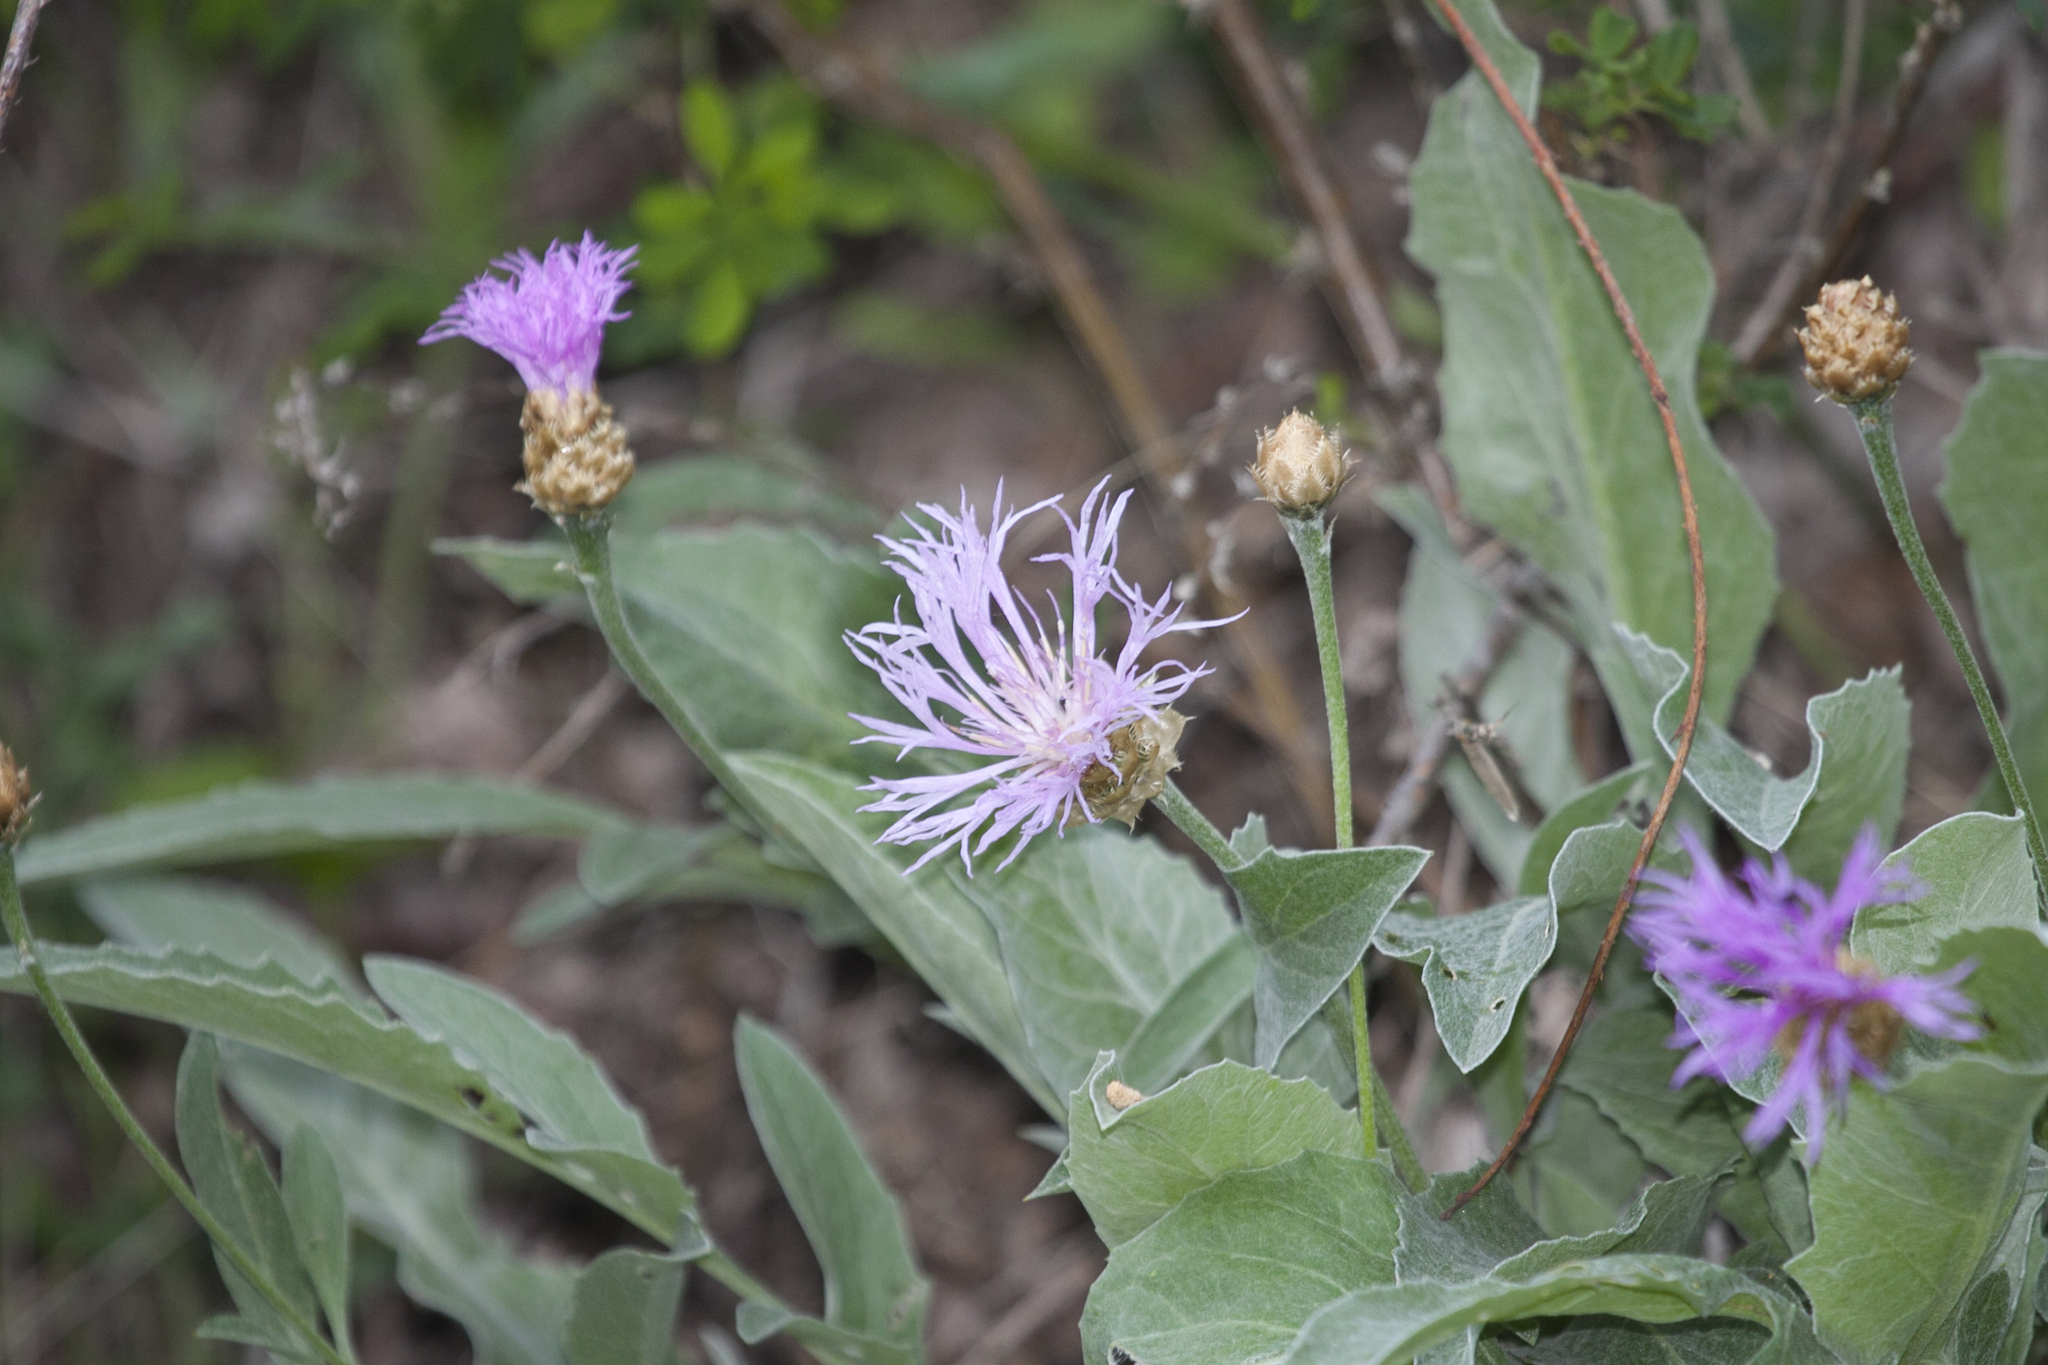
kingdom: Plantae
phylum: Tracheophyta
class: Magnoliopsida
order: Asterales
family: Asteraceae
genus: Psephellus
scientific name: Psephellus sibiricus
